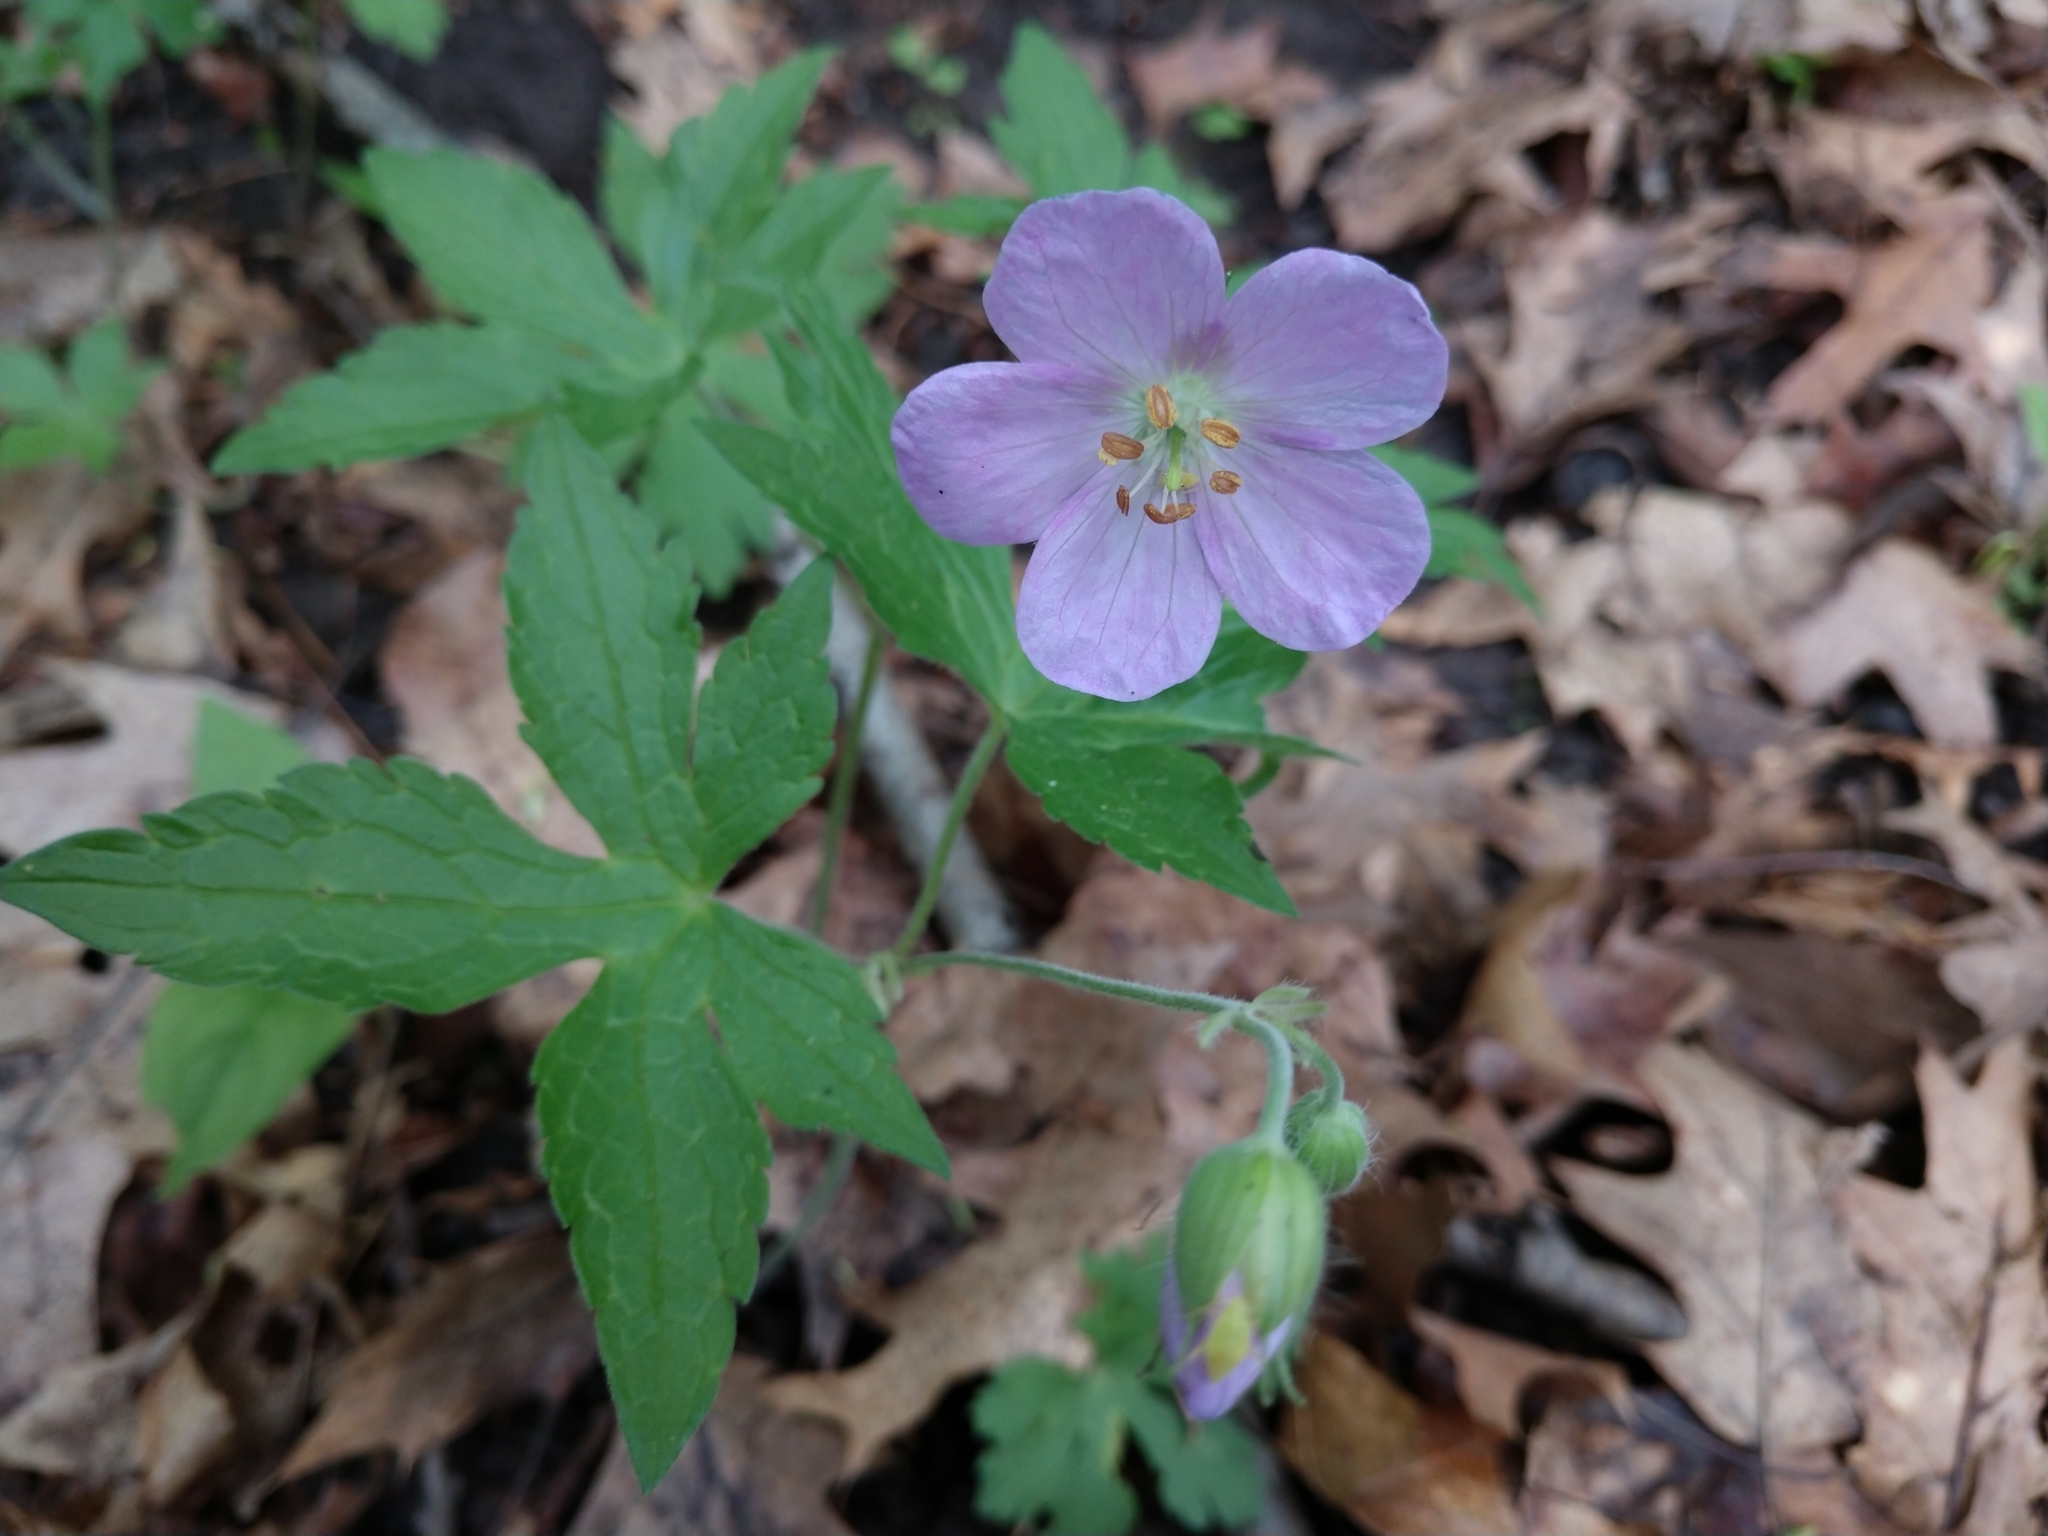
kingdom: Plantae
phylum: Tracheophyta
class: Magnoliopsida
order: Geraniales
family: Geraniaceae
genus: Geranium
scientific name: Geranium maculatum
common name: Spotted geranium
